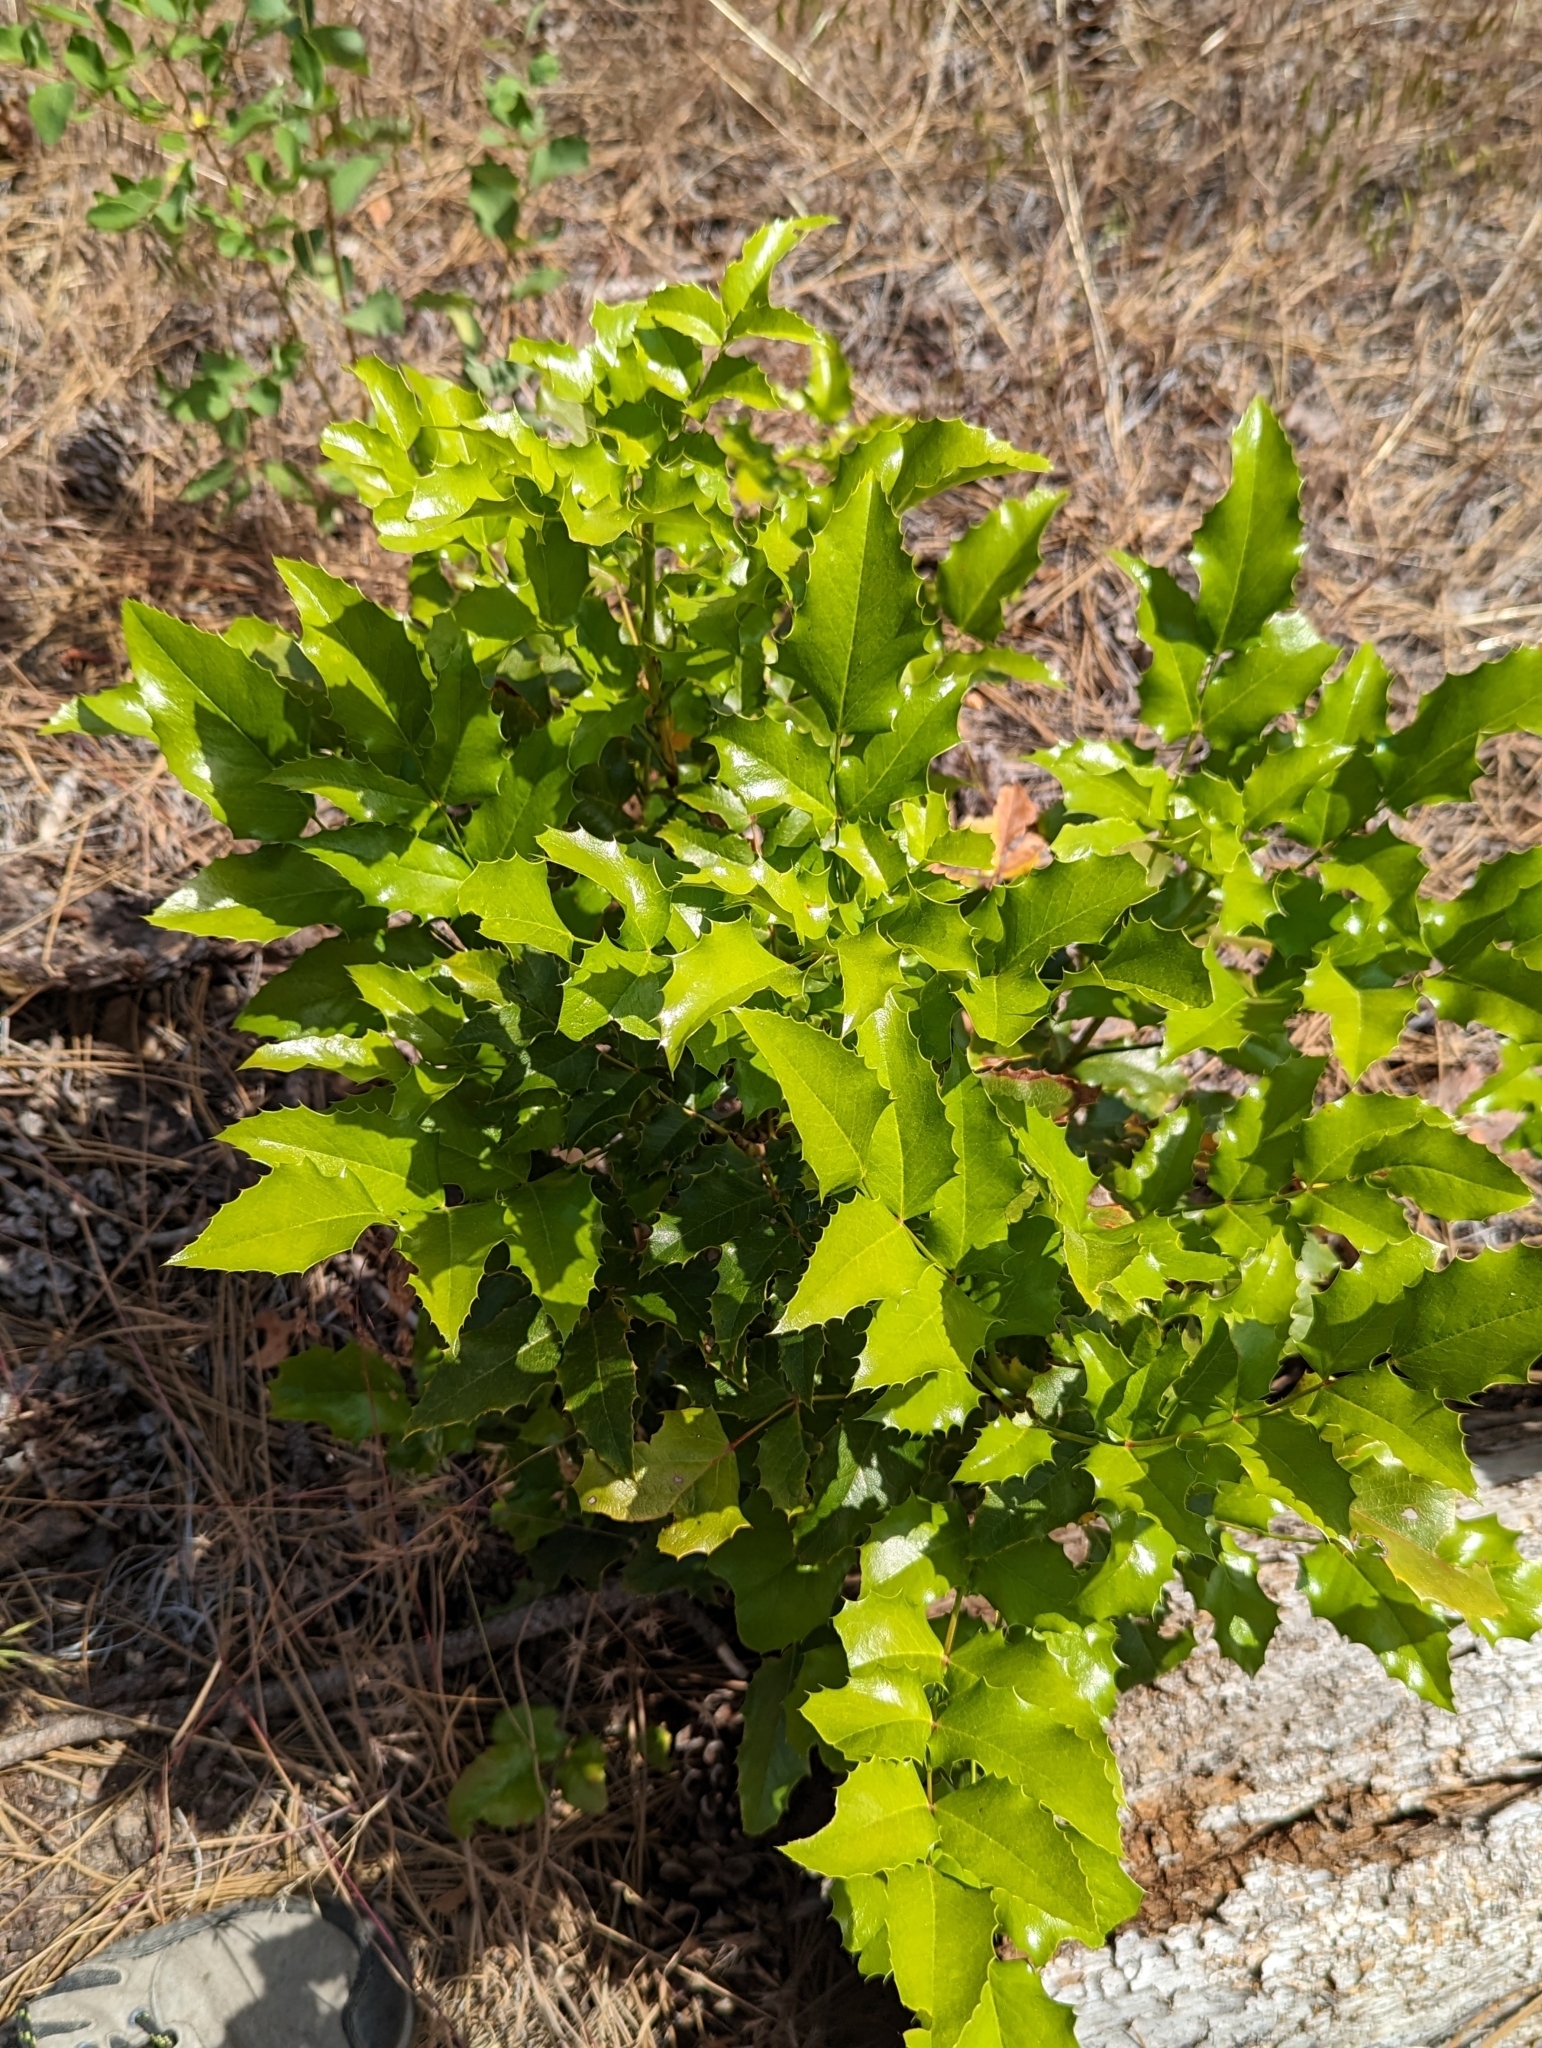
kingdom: Plantae
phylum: Tracheophyta
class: Magnoliopsida
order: Ranunculales
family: Berberidaceae
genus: Mahonia
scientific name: Mahonia aquifolium
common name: Oregon-grape
